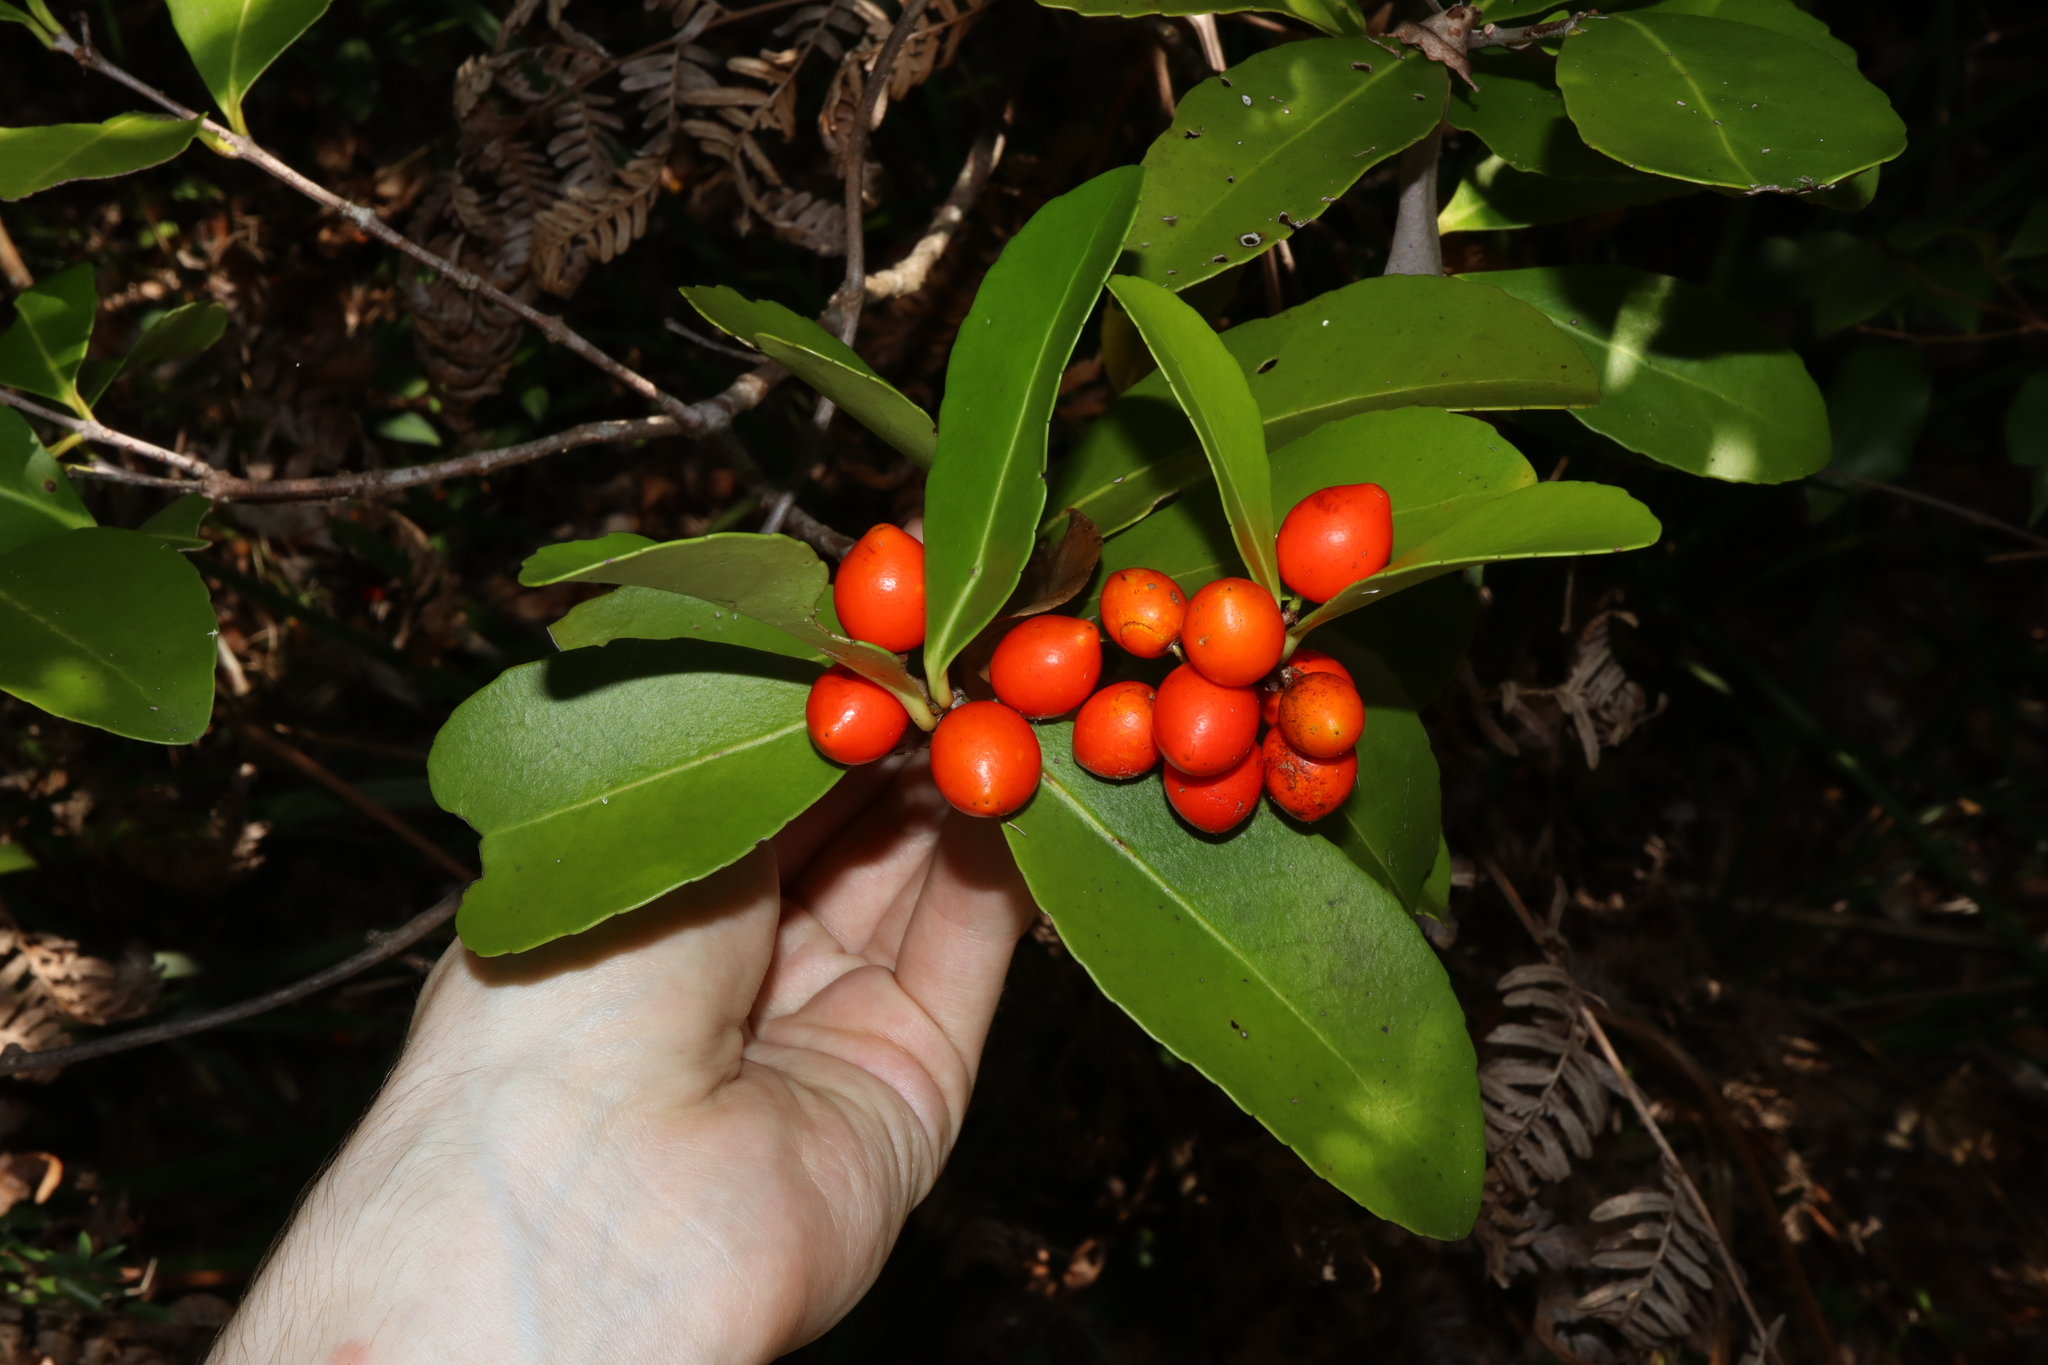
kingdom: Plantae
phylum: Tracheophyta
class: Magnoliopsida
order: Celastrales
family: Celastraceae
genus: Elaeodendron
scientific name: Elaeodendron australe
